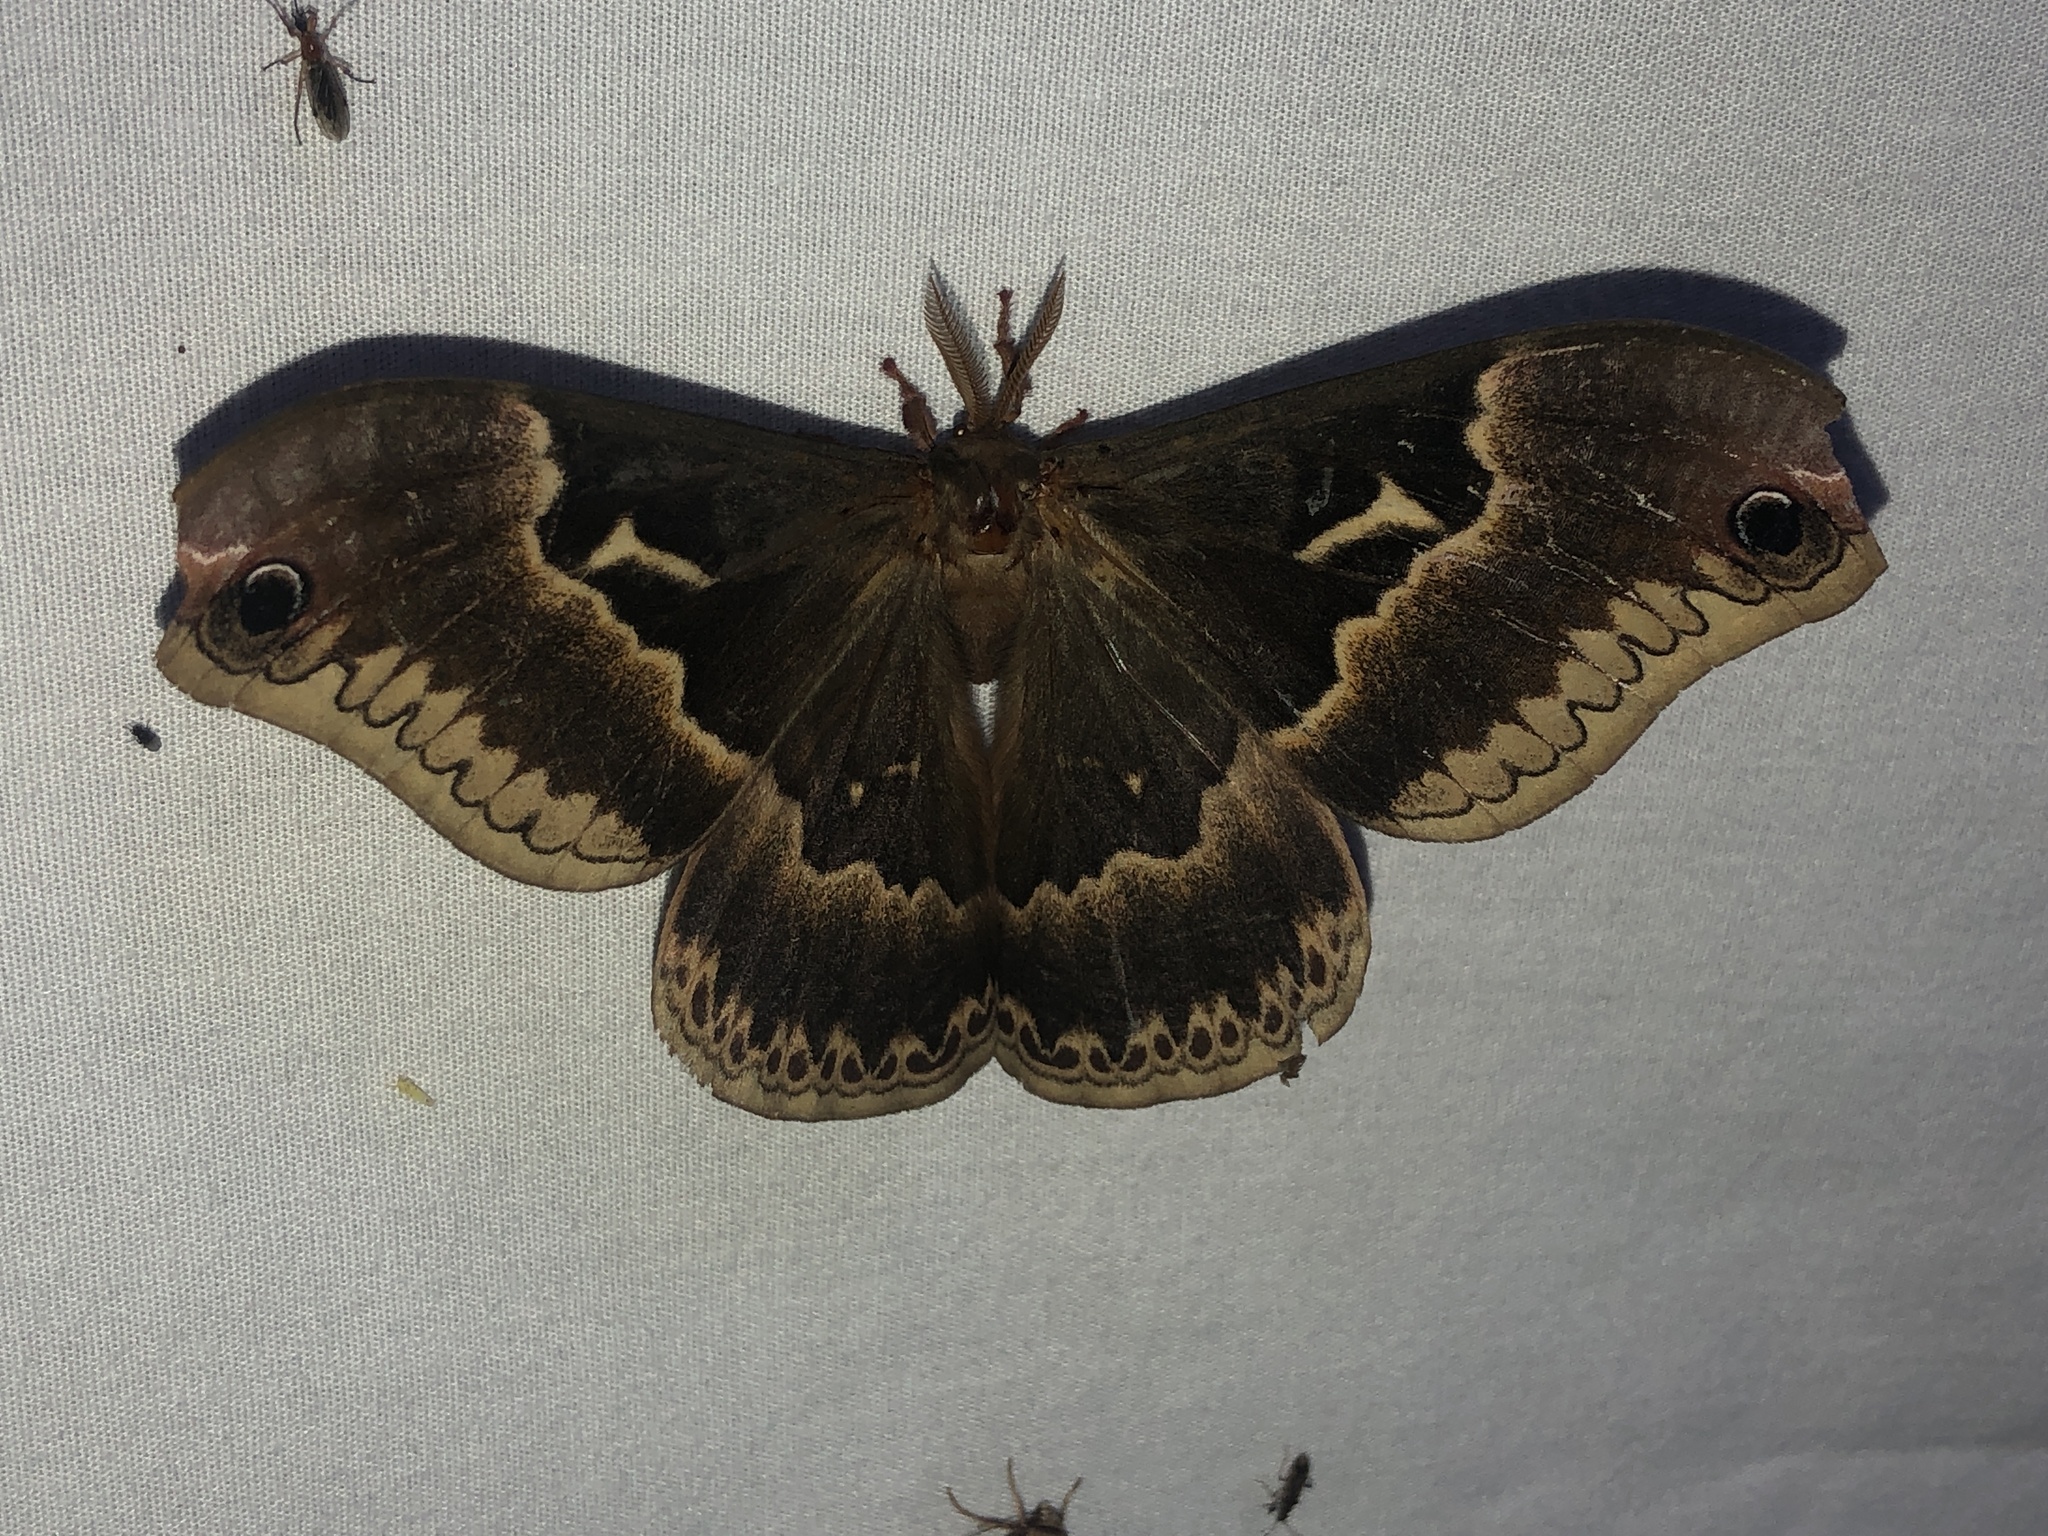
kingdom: Animalia
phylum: Arthropoda
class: Insecta
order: Lepidoptera
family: Saturniidae
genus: Callosamia
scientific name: Callosamia angulifera
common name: Tulip tree silkmoth
